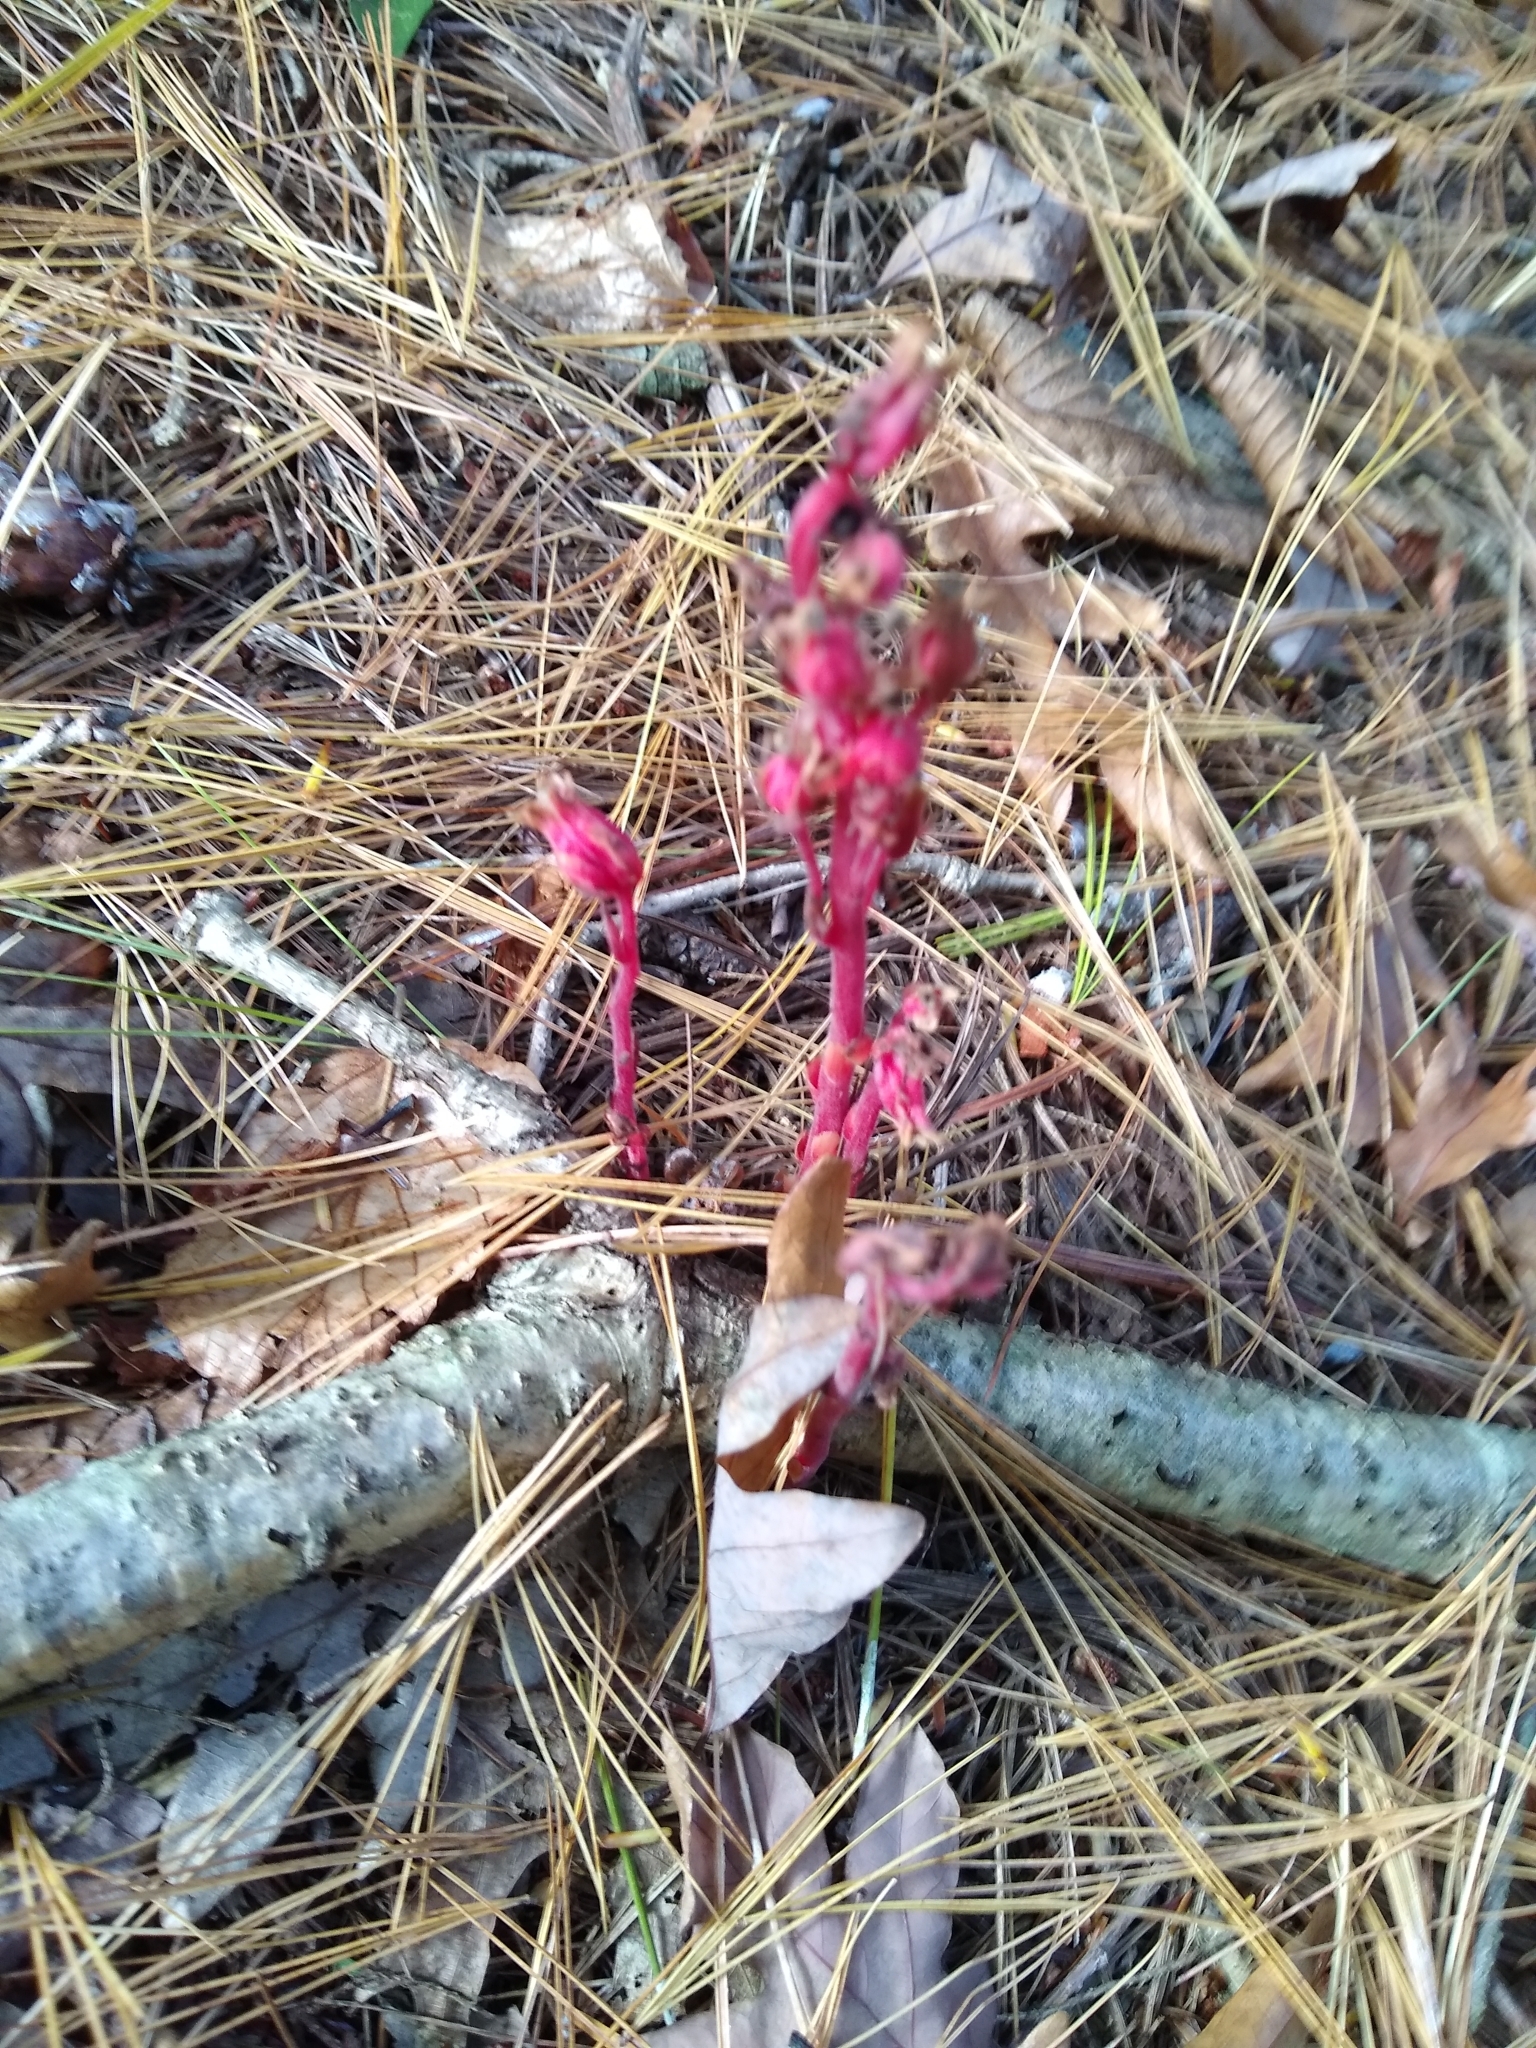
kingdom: Plantae
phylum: Tracheophyta
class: Magnoliopsida
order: Ericales
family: Ericaceae
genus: Hypopitys
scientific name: Hypopitys monotropa
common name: Yellow bird's-nest
